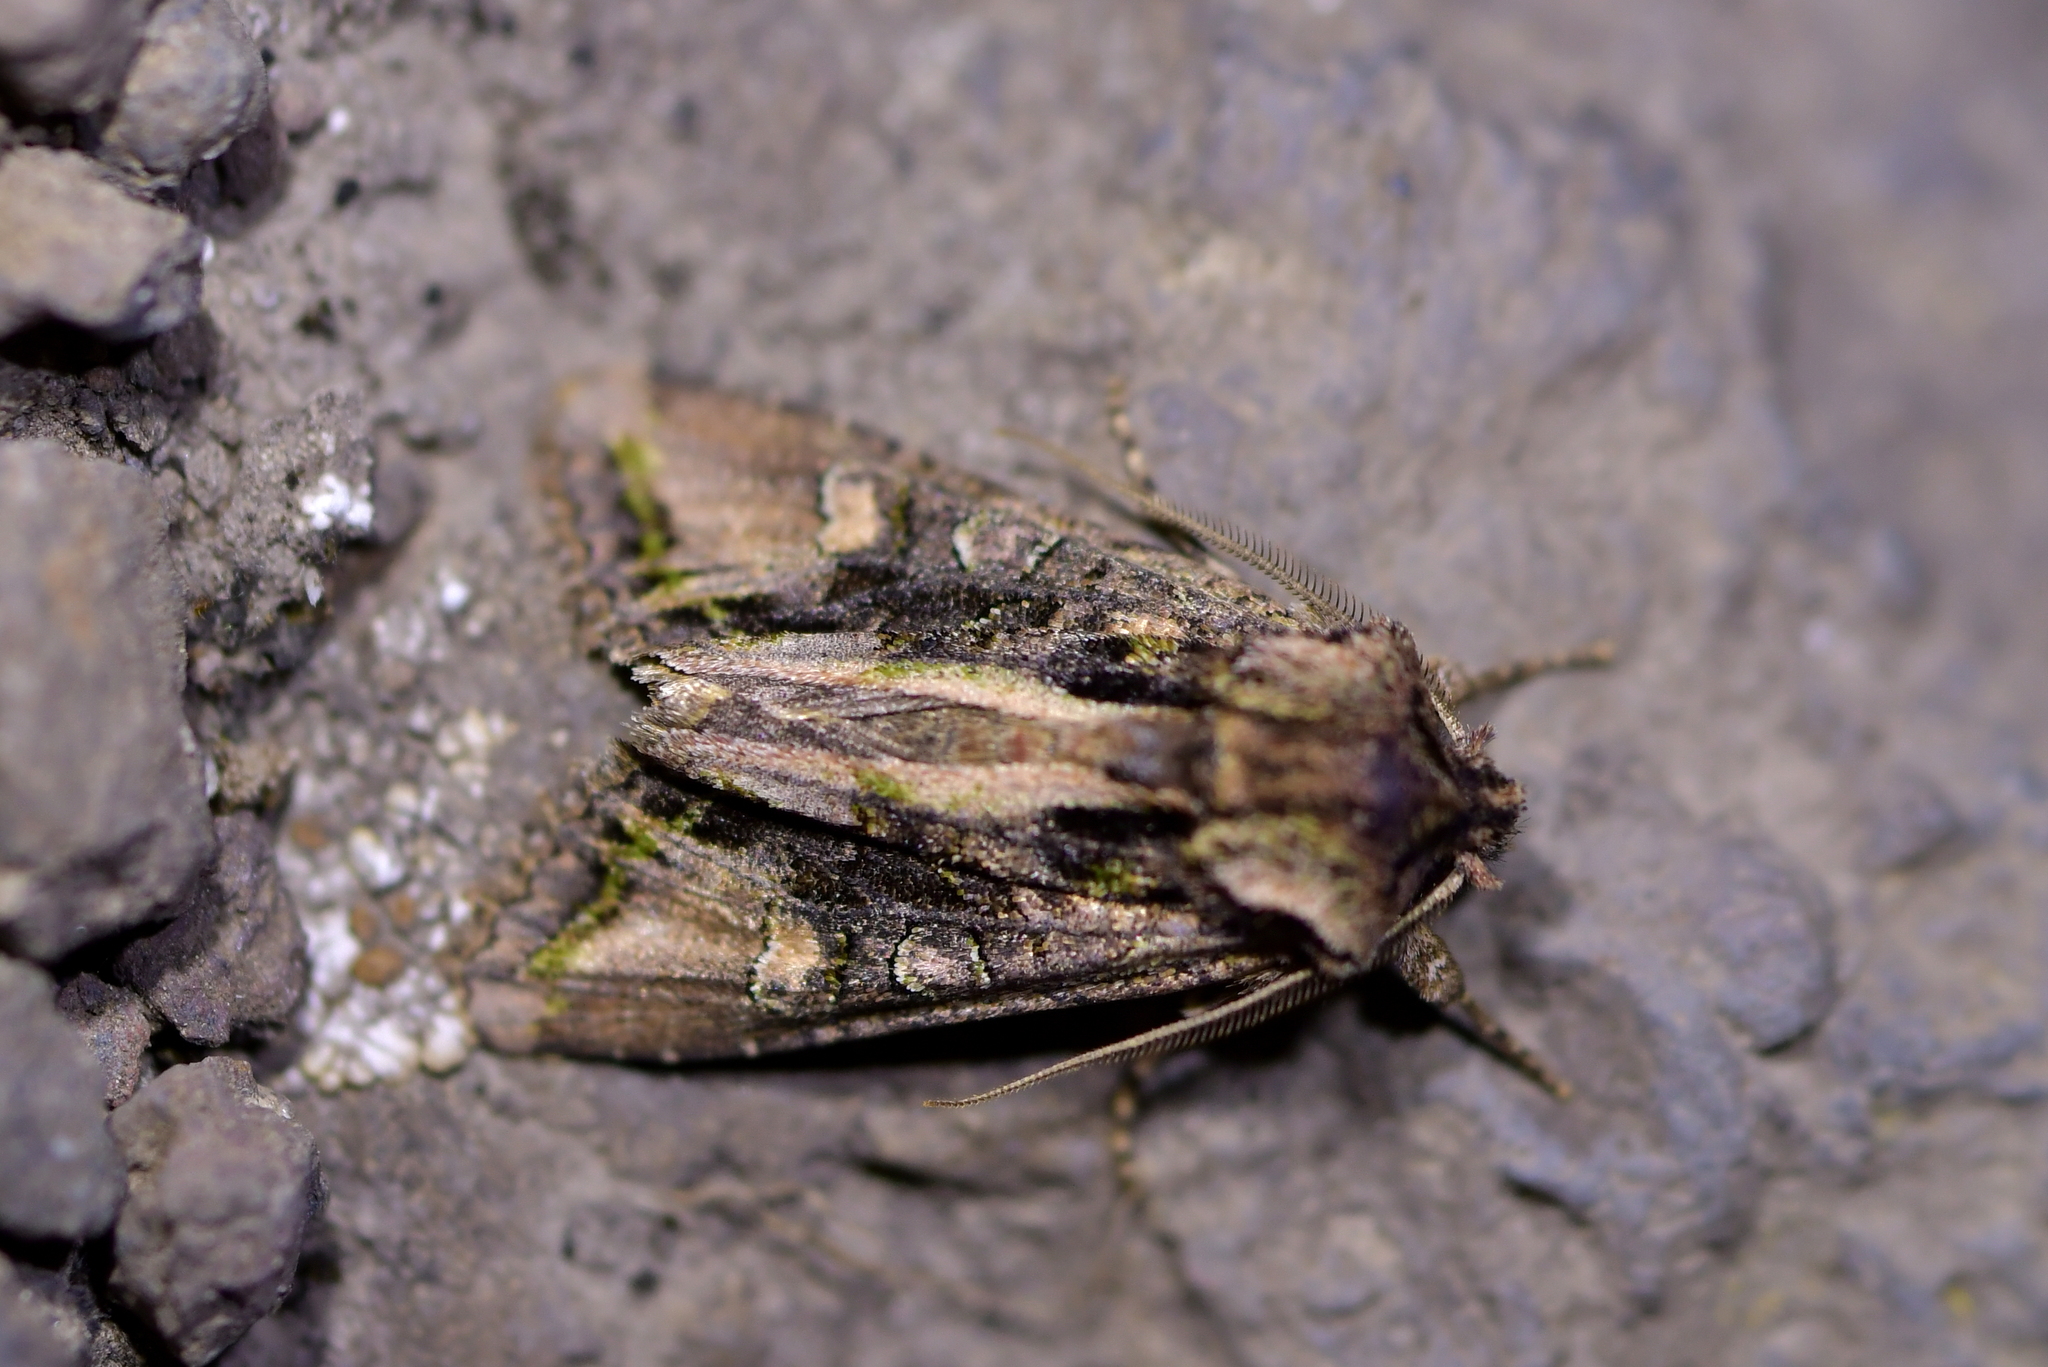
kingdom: Animalia
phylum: Arthropoda
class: Insecta
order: Lepidoptera
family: Noctuidae
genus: Ichneutica
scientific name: Ichneutica insignis
